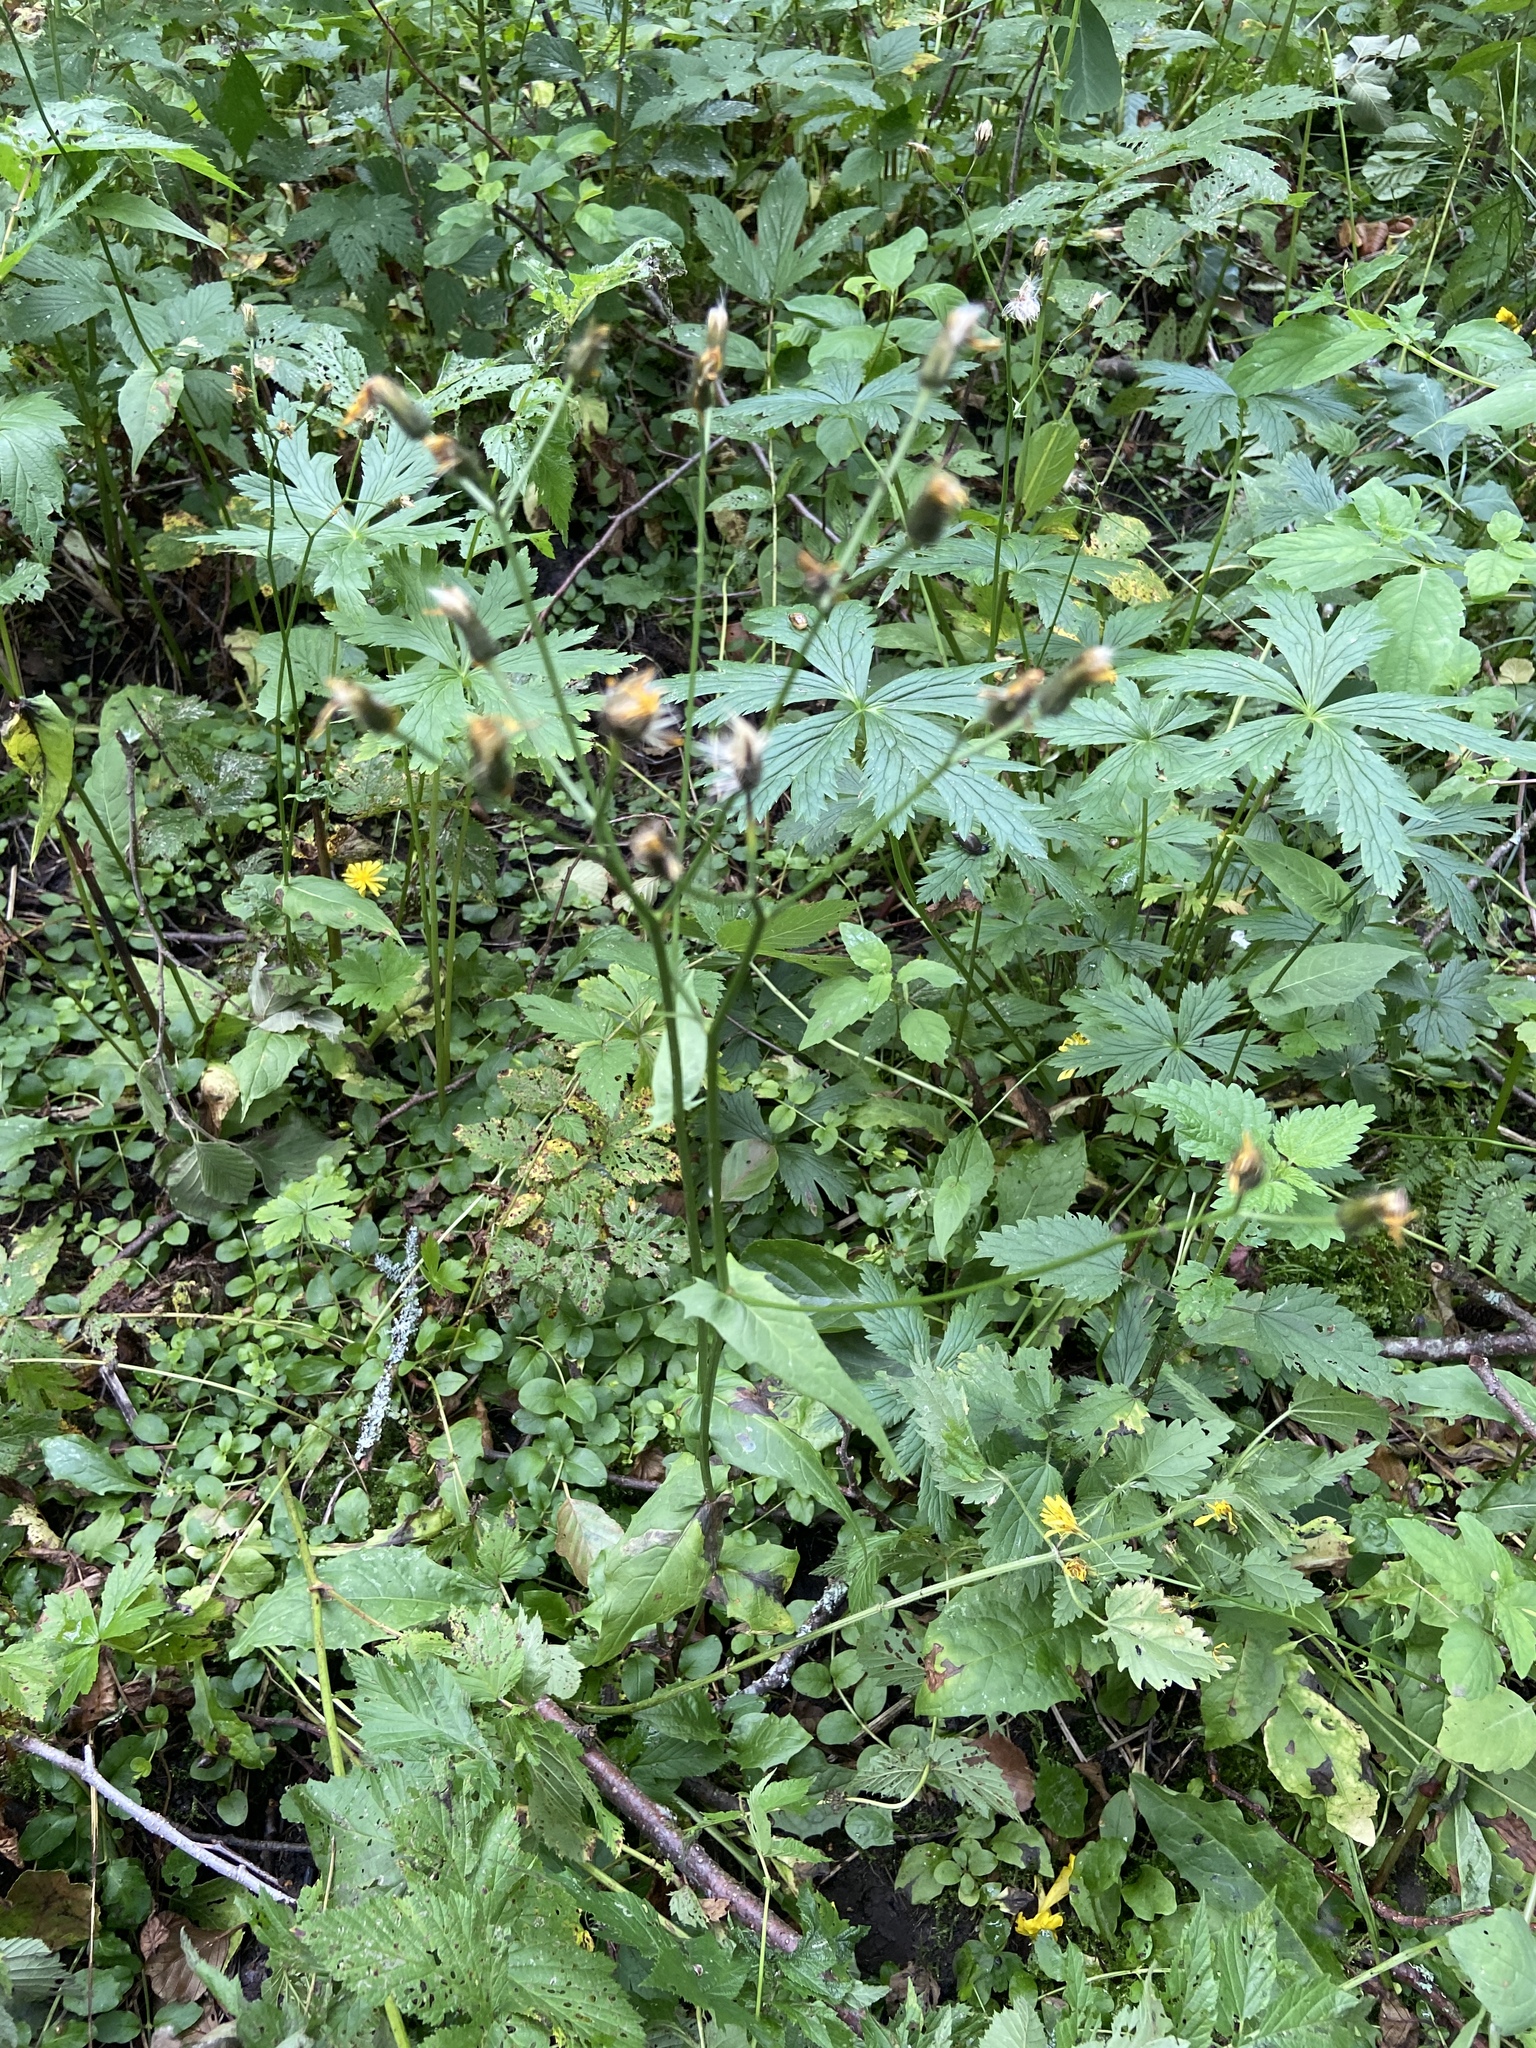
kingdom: Plantae
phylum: Tracheophyta
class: Magnoliopsida
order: Asterales
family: Asteraceae
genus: Crepis
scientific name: Crepis paludosa
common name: Marsh hawk's-beard
